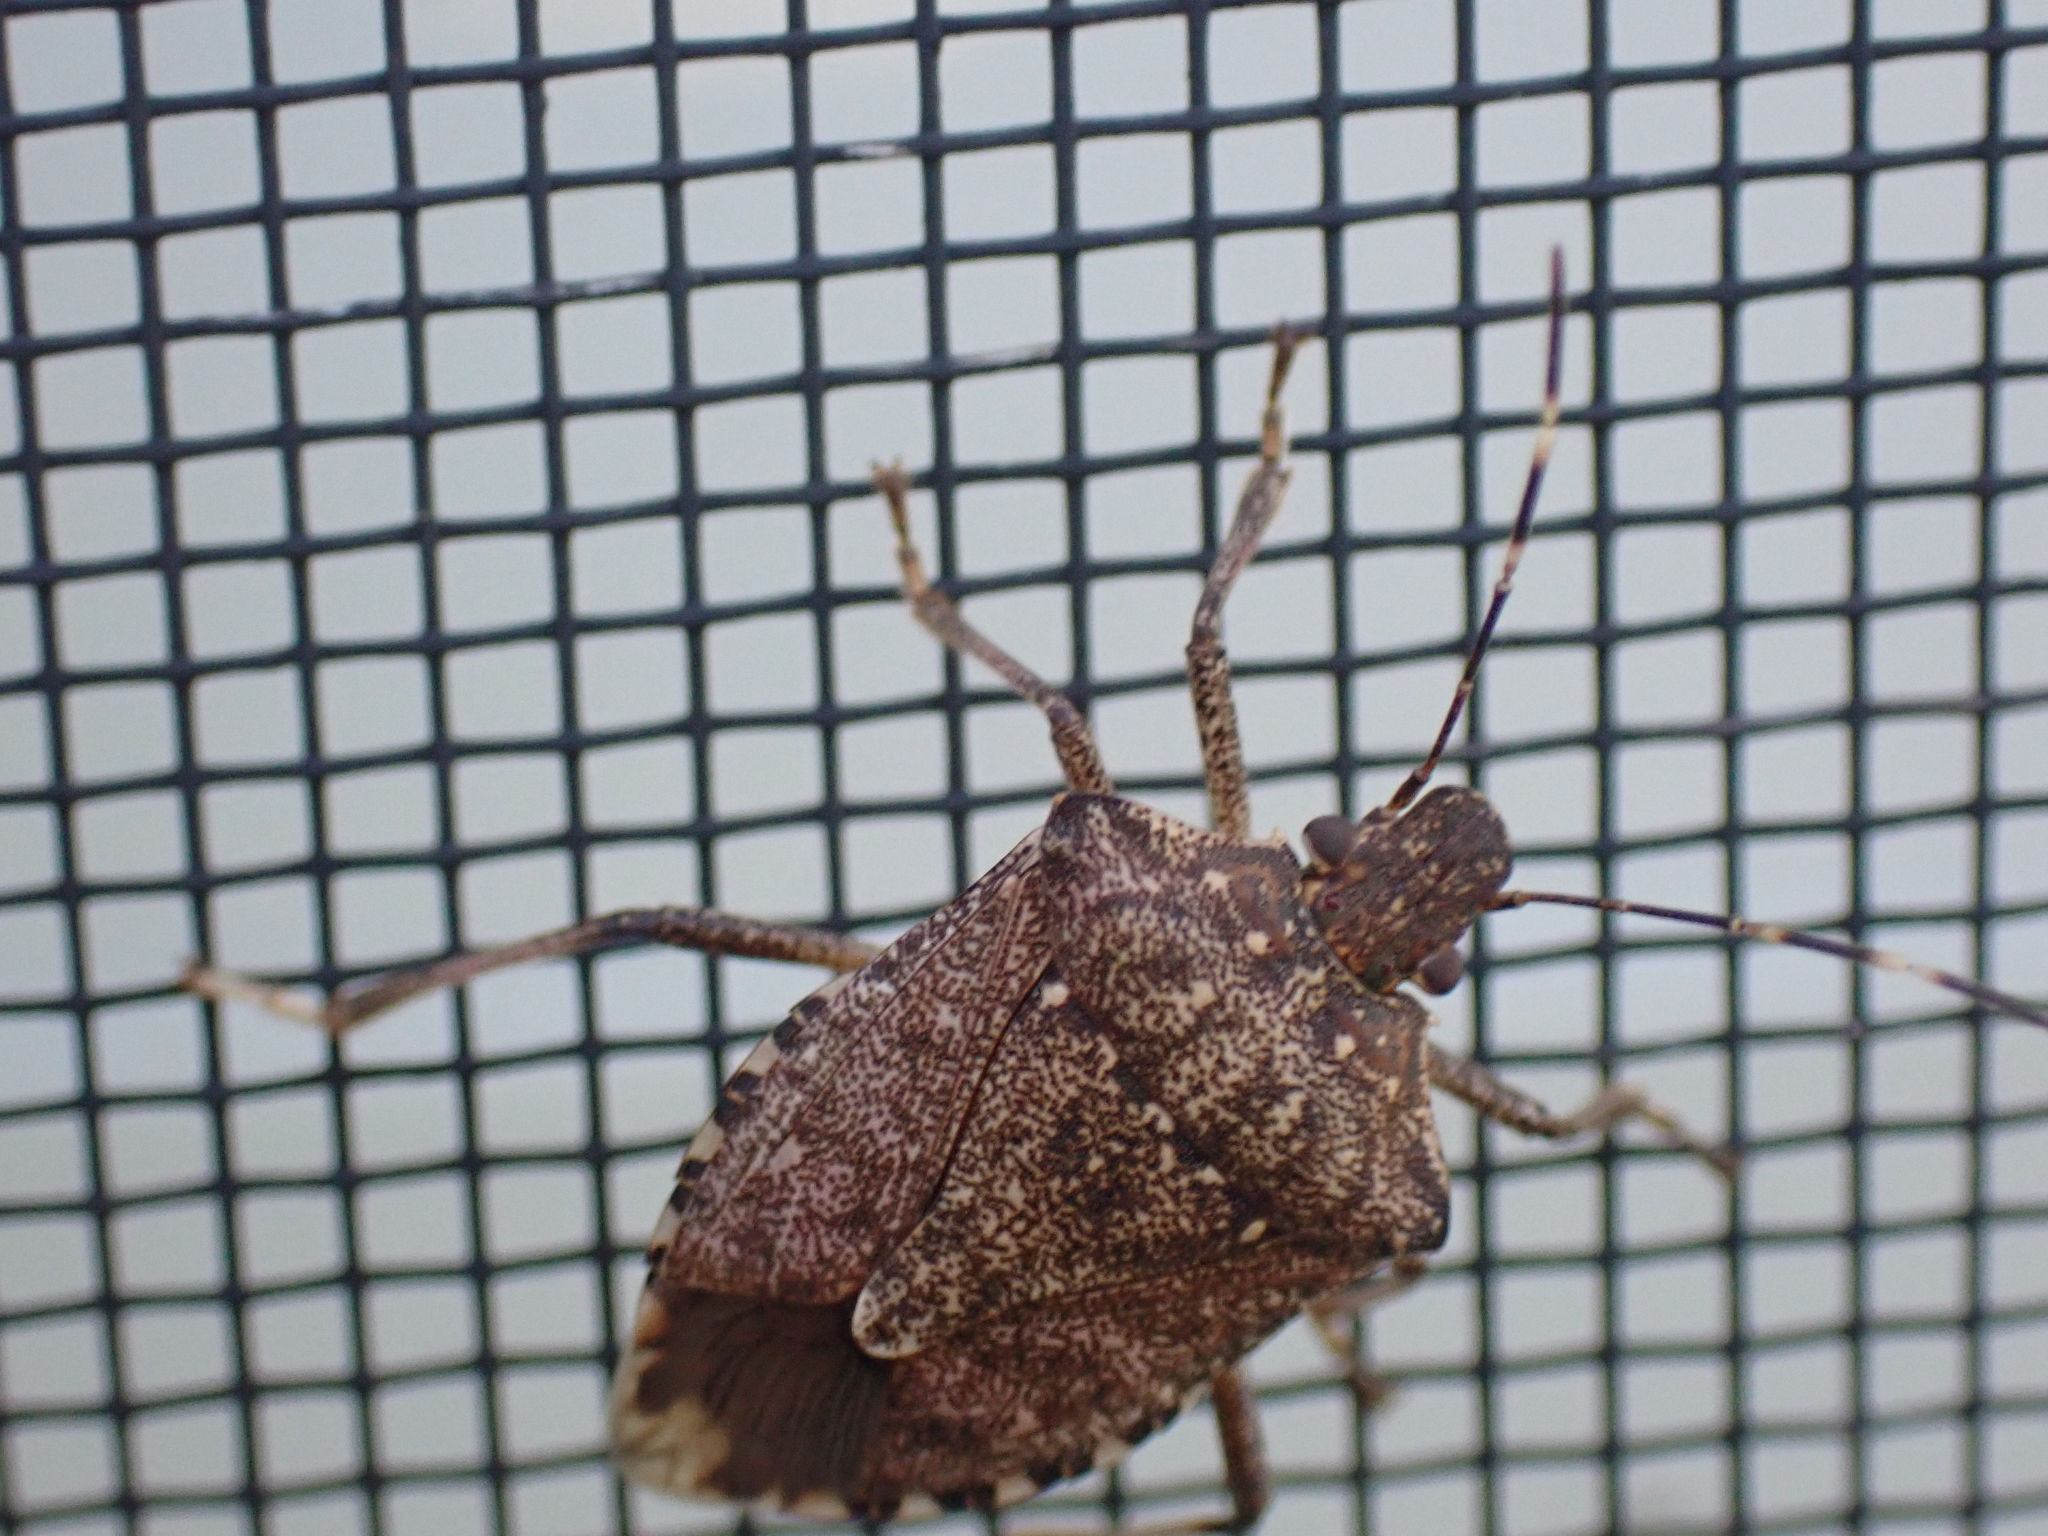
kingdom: Animalia
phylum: Arthropoda
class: Insecta
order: Hemiptera
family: Pentatomidae
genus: Halyomorpha
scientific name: Halyomorpha halys
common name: Brown marmorated stink bug
